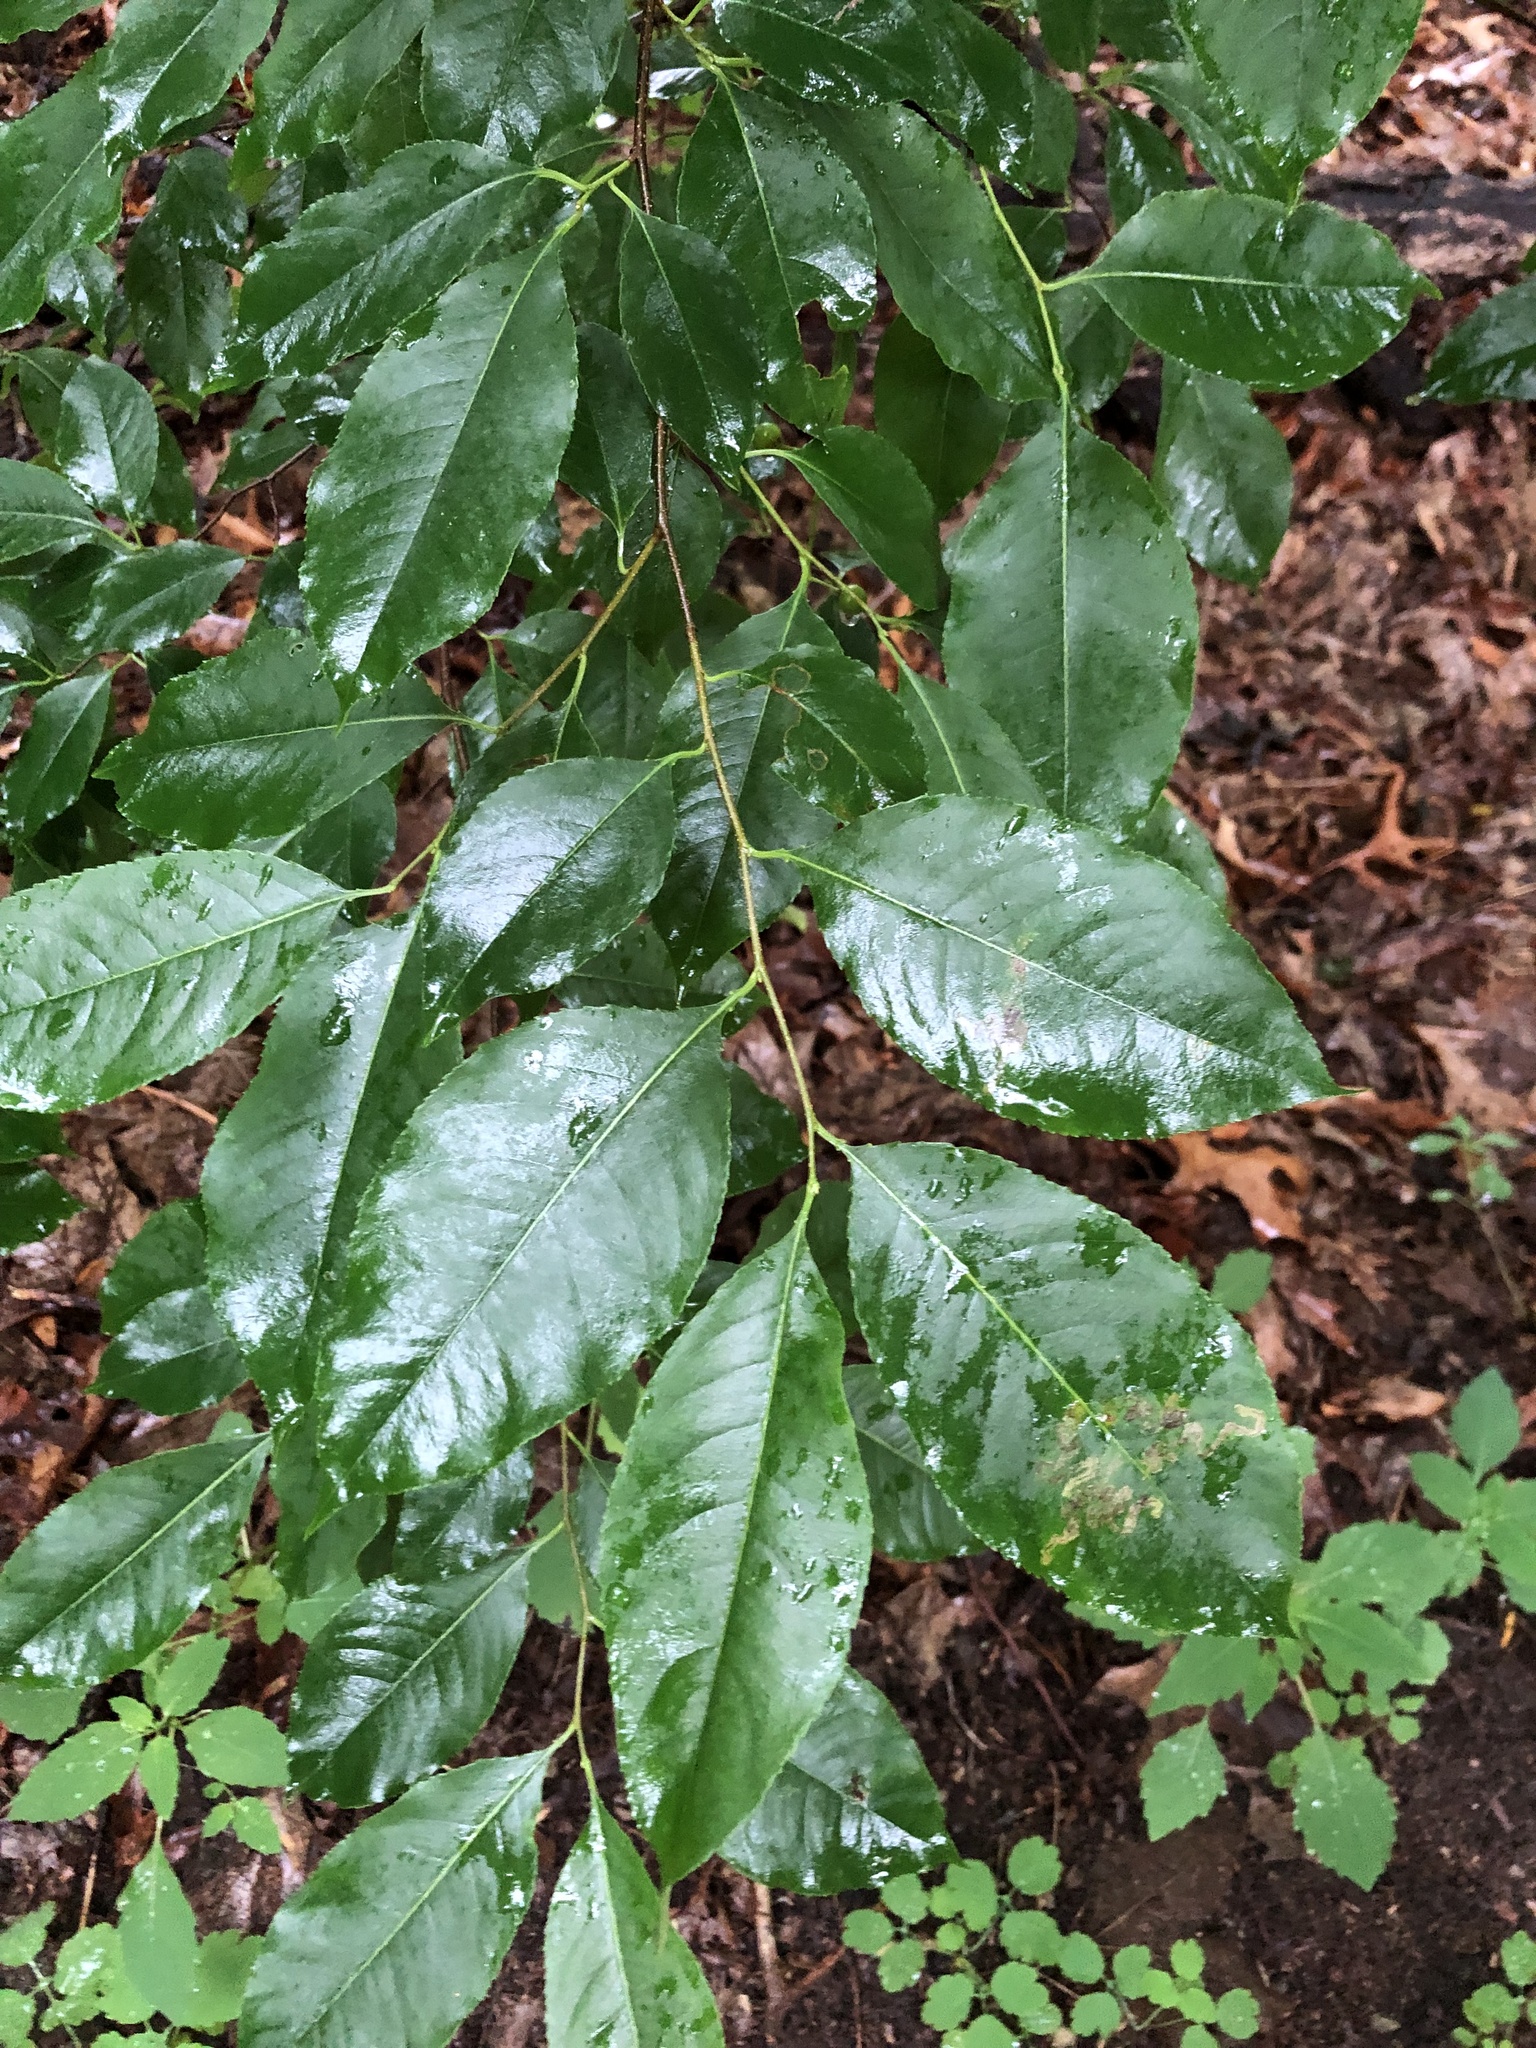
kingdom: Plantae
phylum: Tracheophyta
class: Magnoliopsida
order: Rosales
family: Rosaceae
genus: Prunus
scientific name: Prunus serotina
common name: Black cherry
